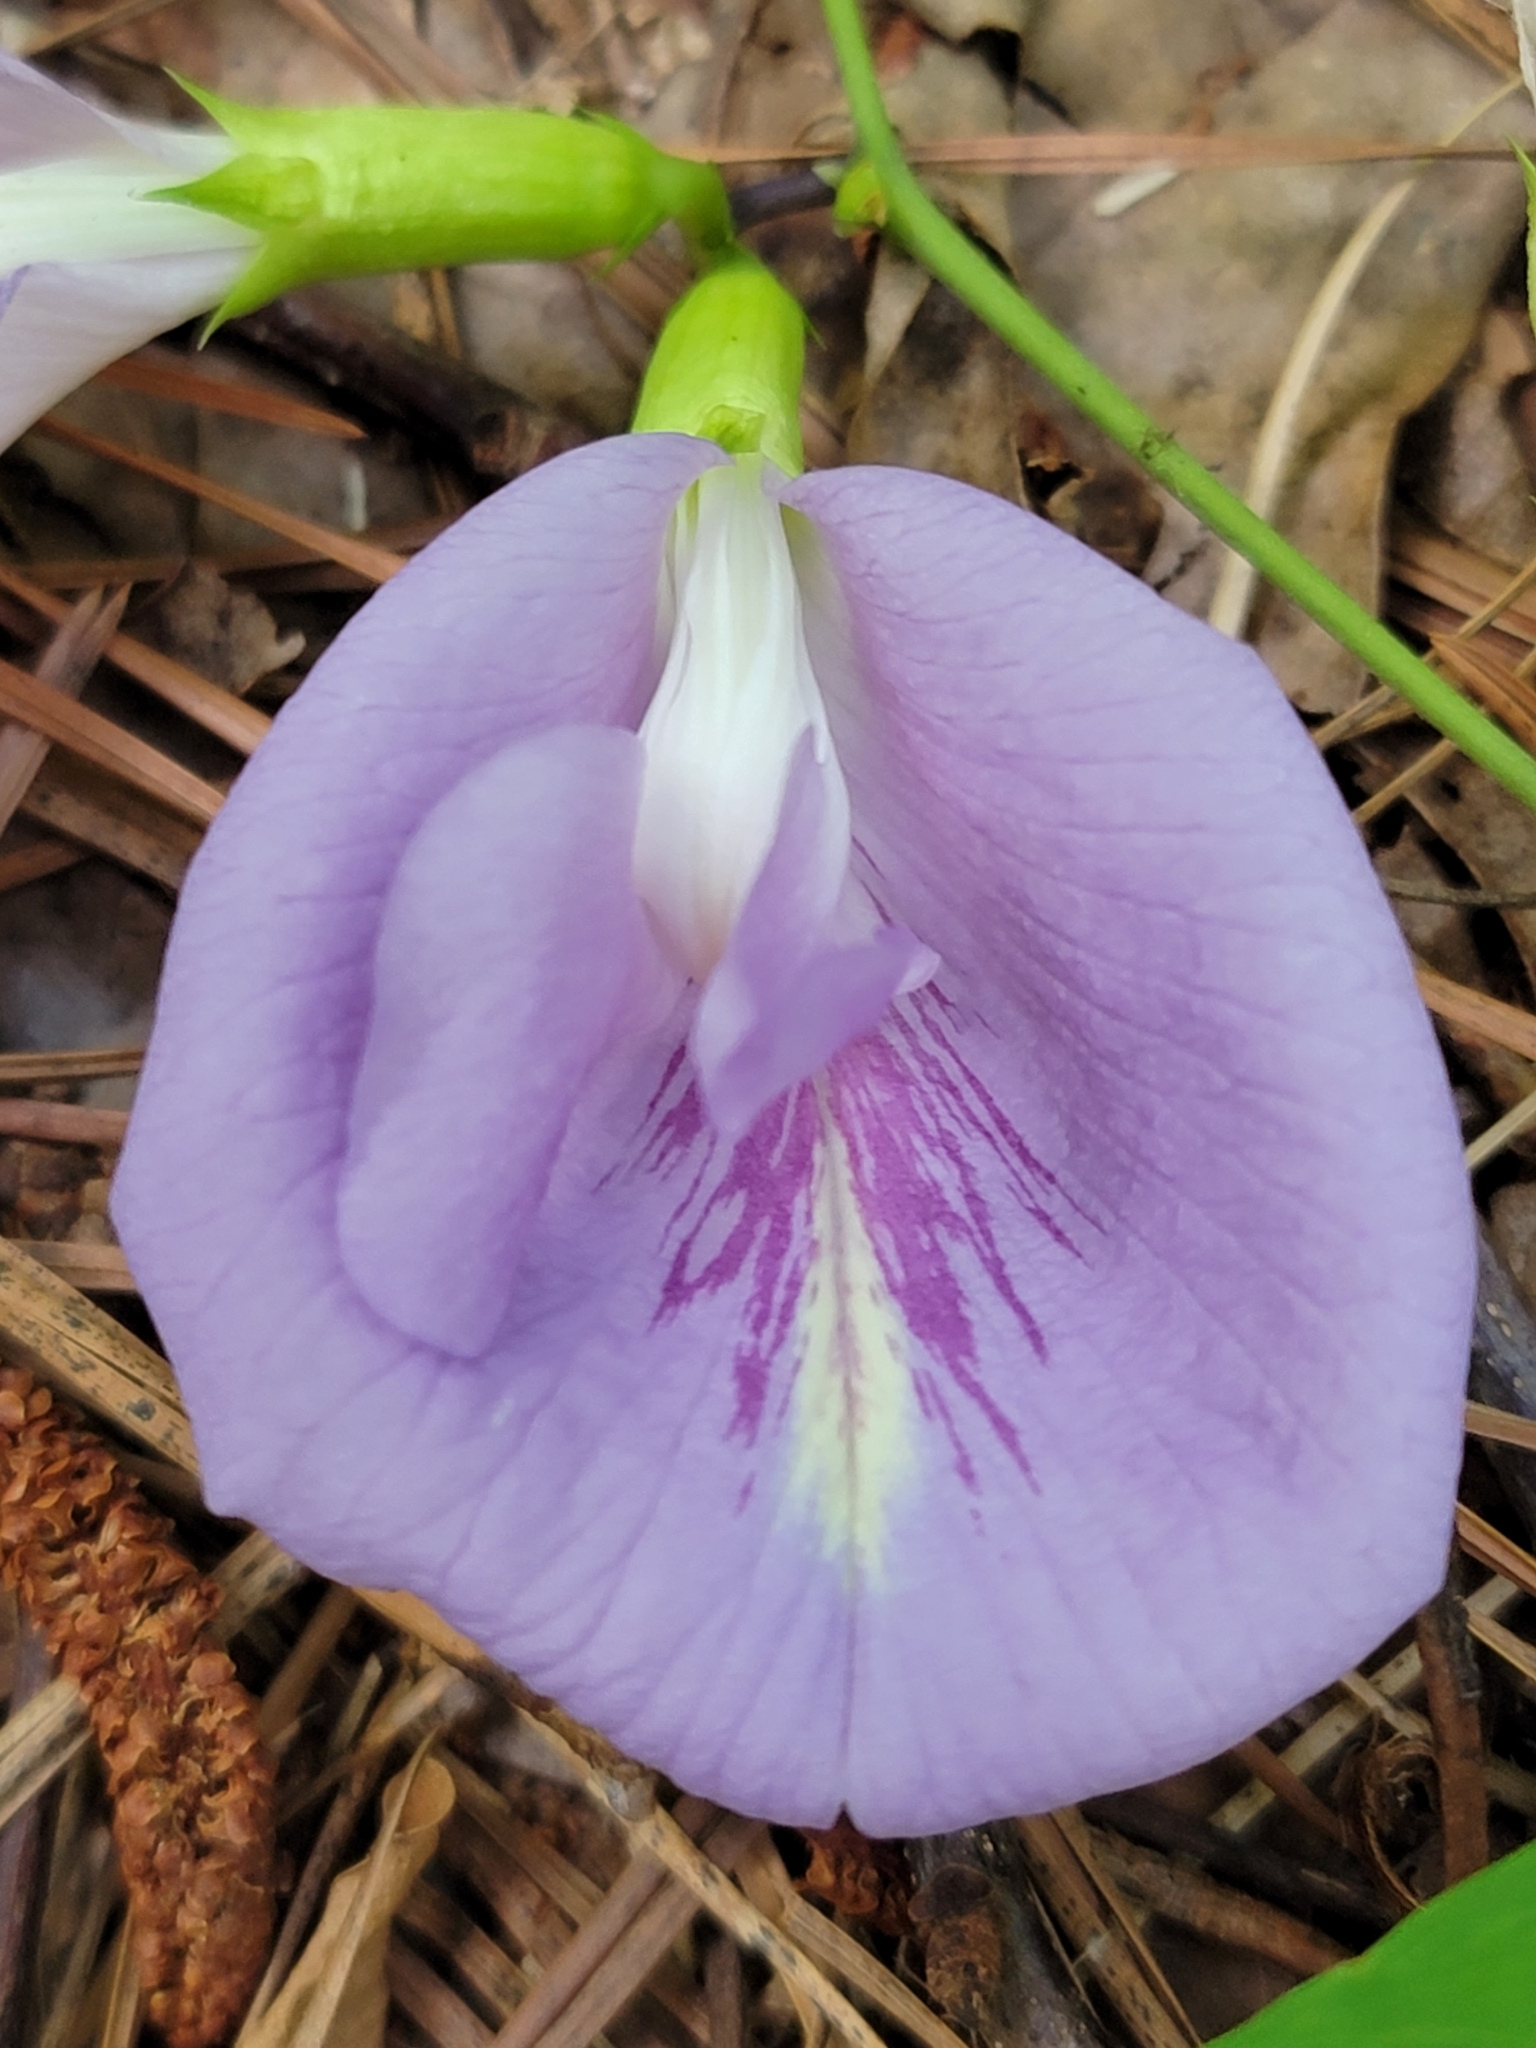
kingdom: Plantae
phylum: Tracheophyta
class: Magnoliopsida
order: Fabales
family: Fabaceae
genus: Clitoria
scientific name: Clitoria mariana
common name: Butterfly-pea
